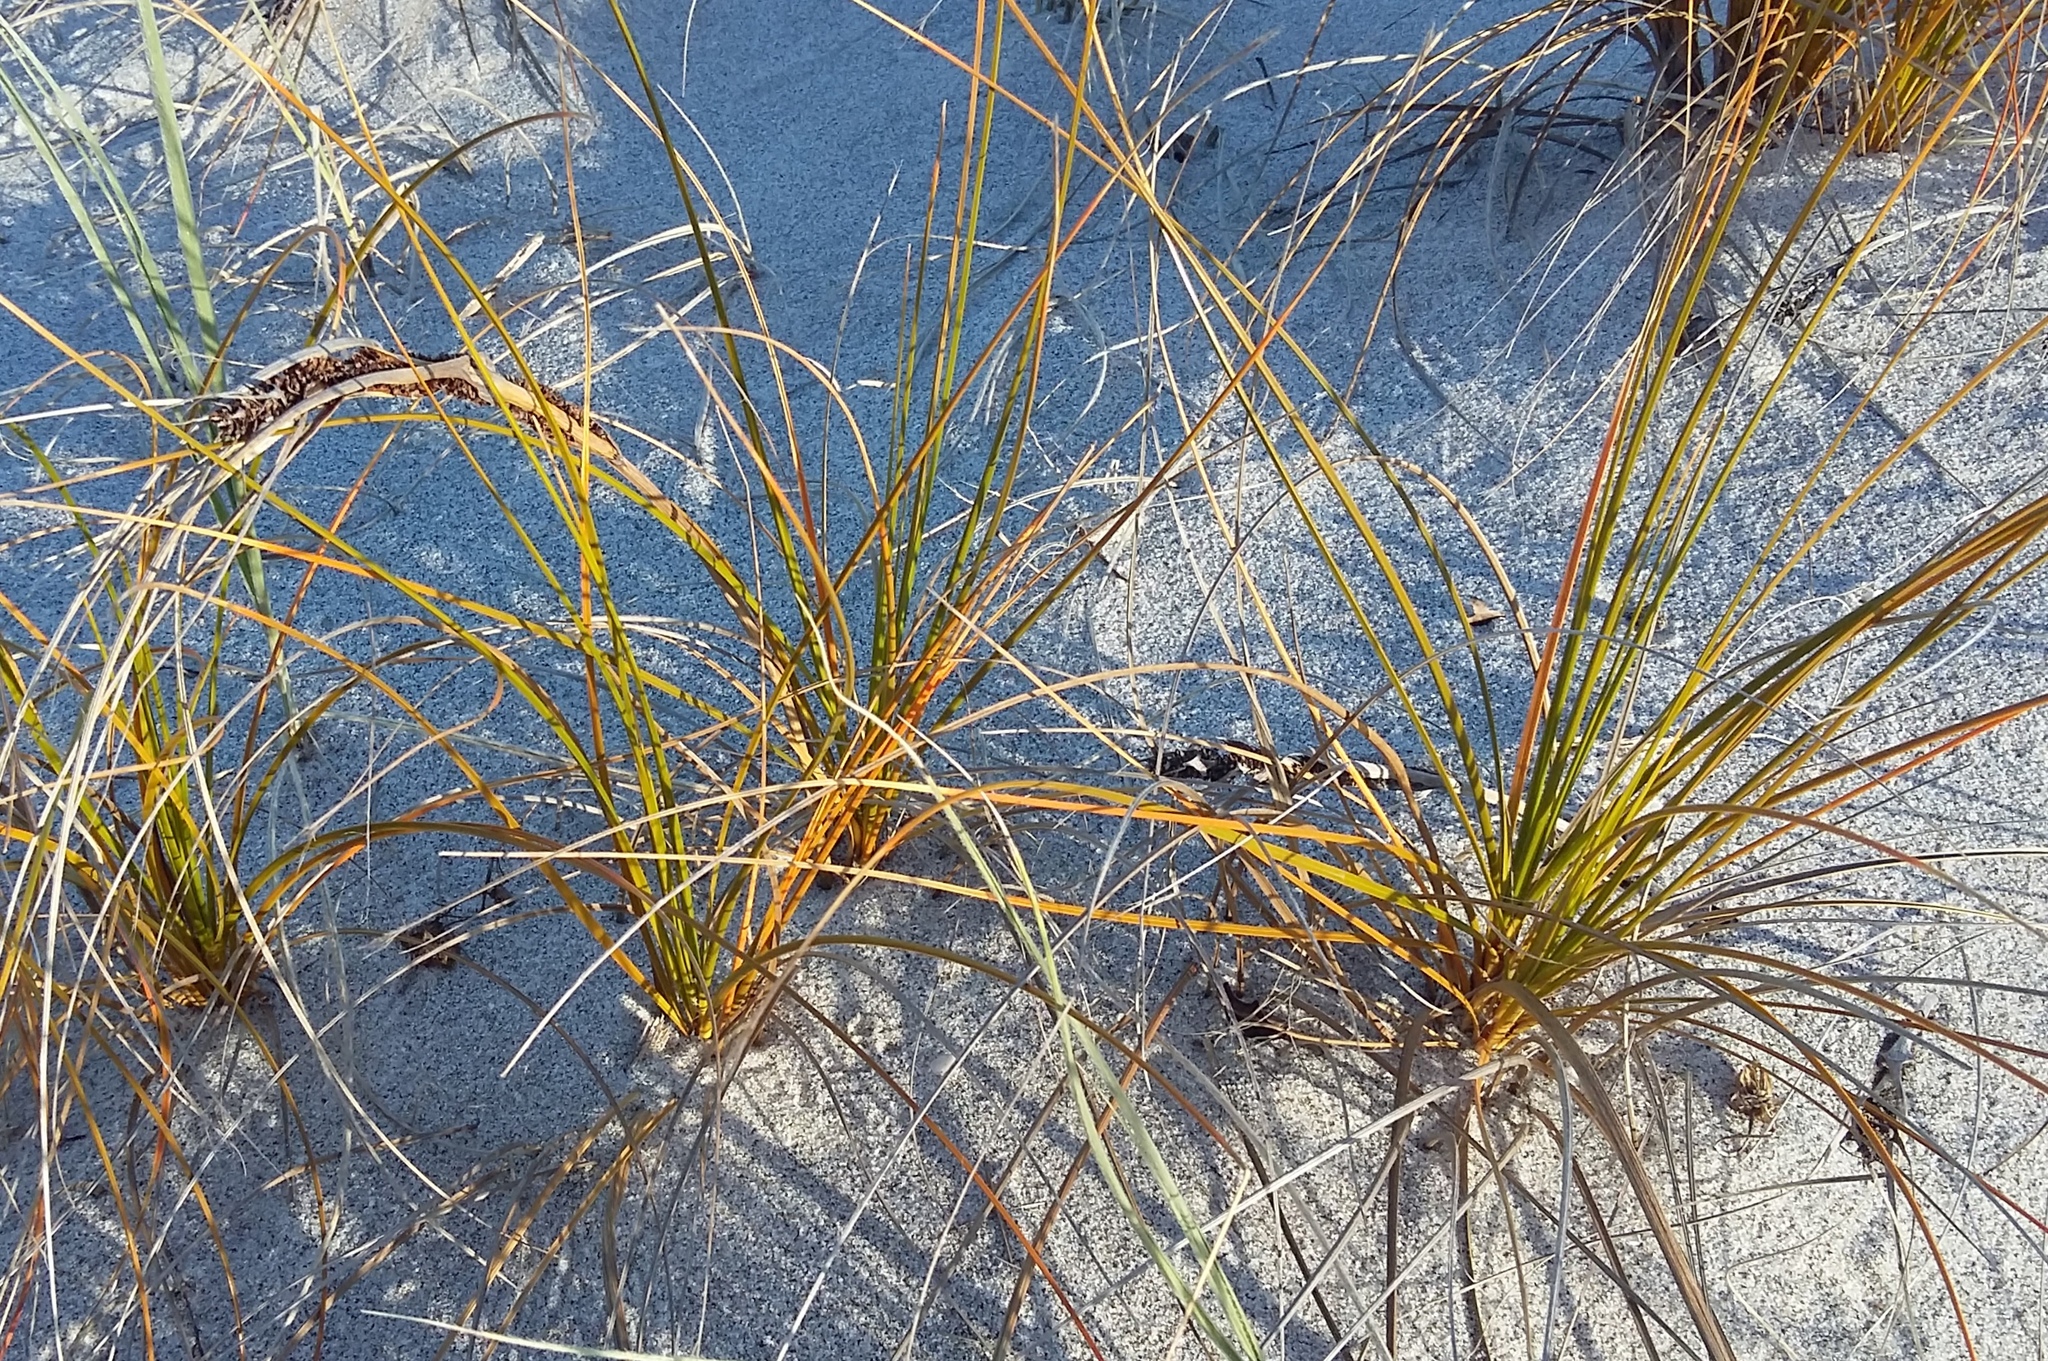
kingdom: Plantae
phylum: Tracheophyta
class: Liliopsida
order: Poales
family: Cyperaceae
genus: Ficinia
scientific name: Ficinia spiralis
